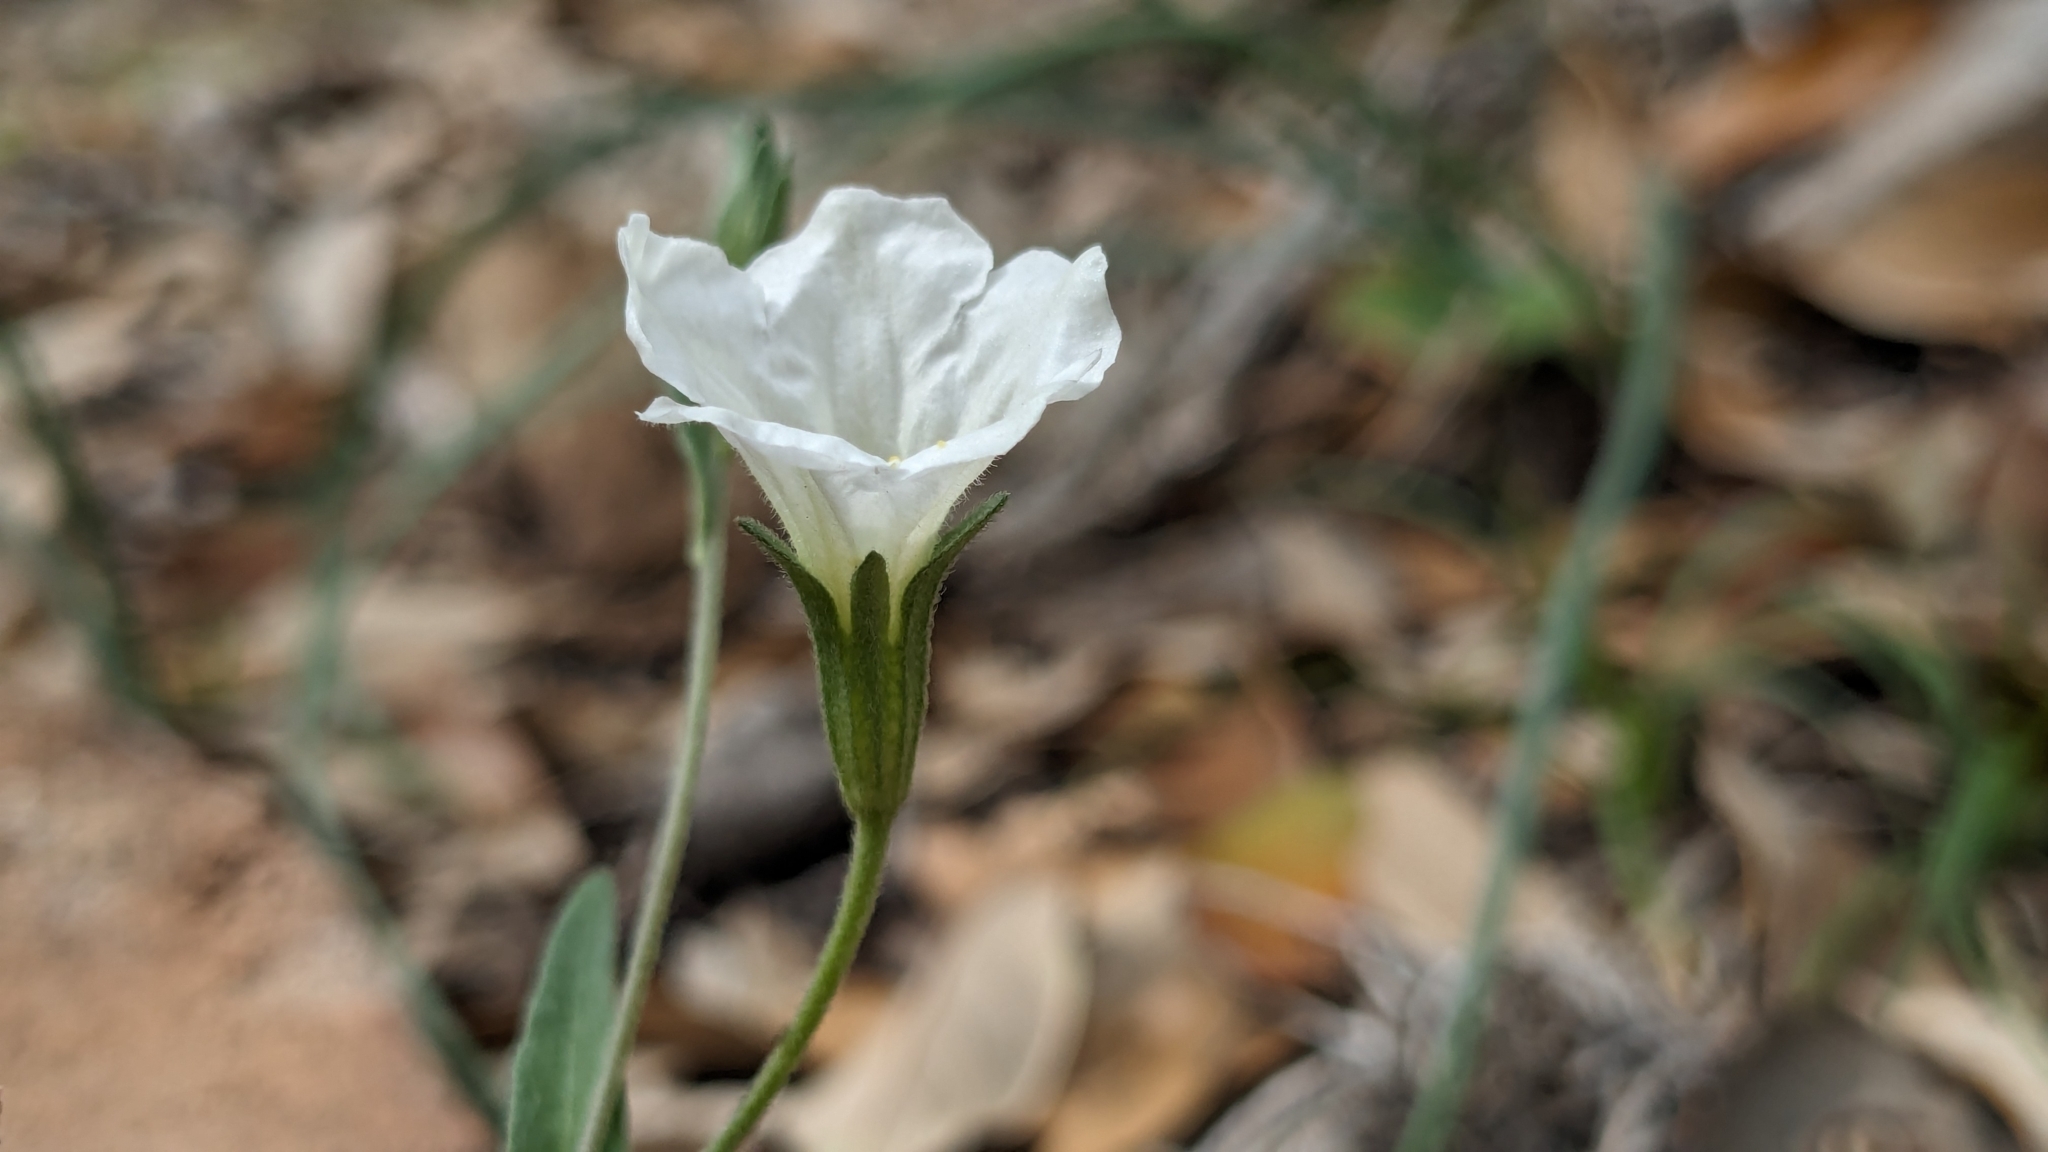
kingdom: Plantae
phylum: Tracheophyta
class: Magnoliopsida
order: Solanales
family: Solanaceae
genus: Salpiglossis
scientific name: Salpiglossis erecta
